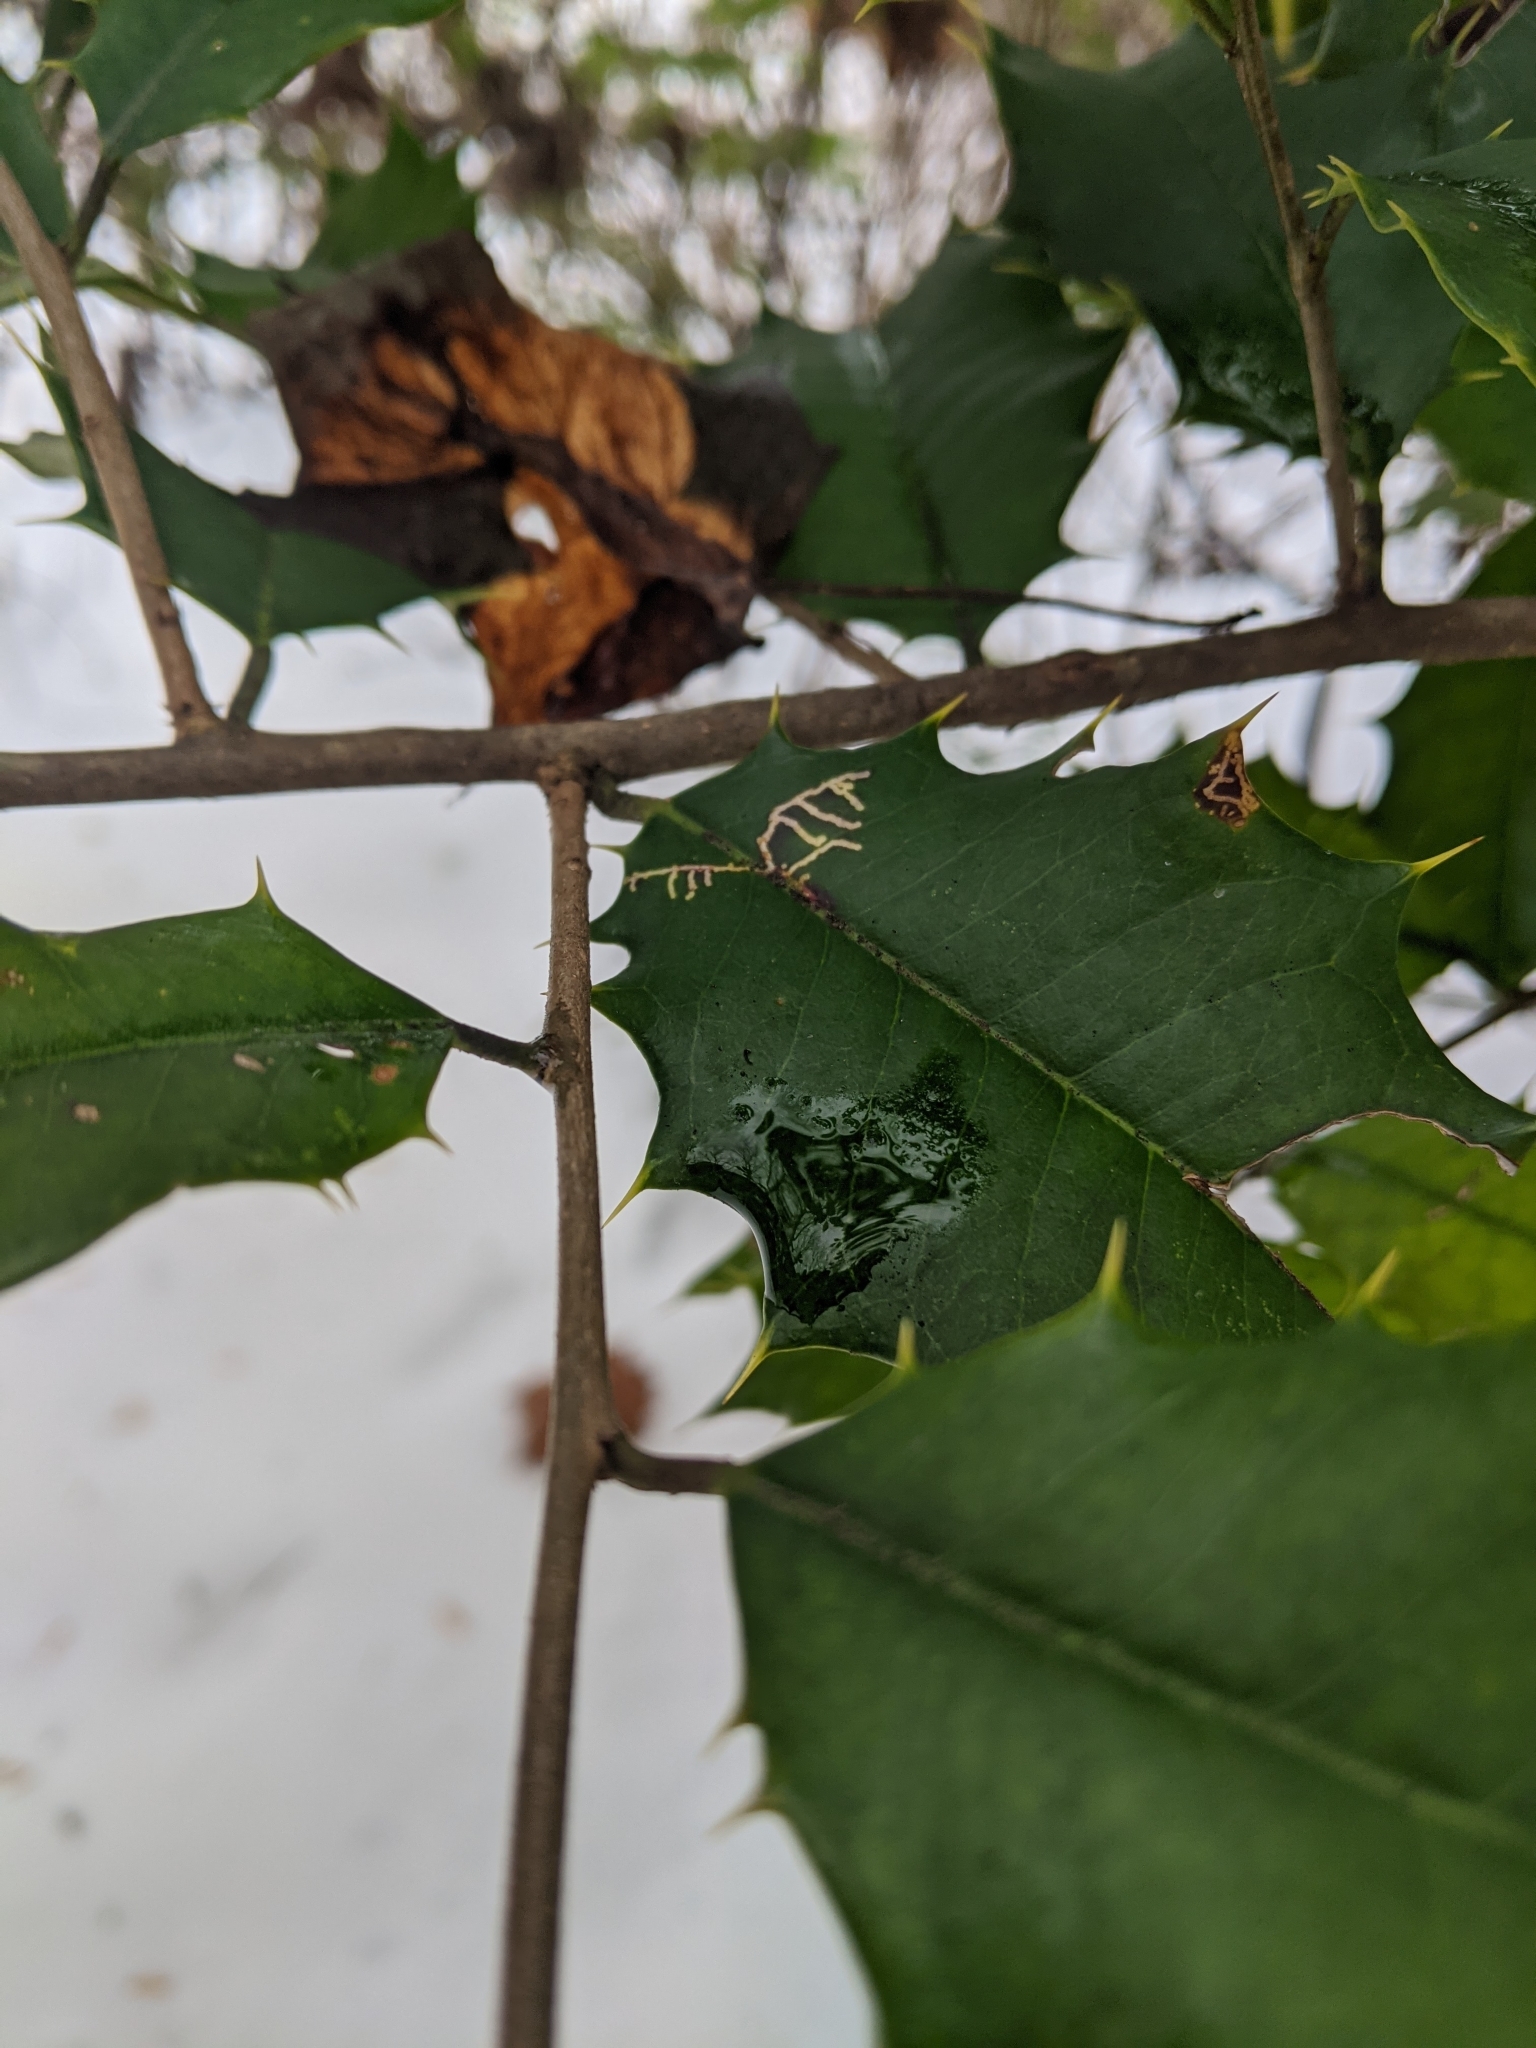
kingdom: Plantae
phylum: Tracheophyta
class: Magnoliopsida
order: Aquifoliales
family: Aquifoliaceae
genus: Ilex
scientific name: Ilex opaca
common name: American holly
